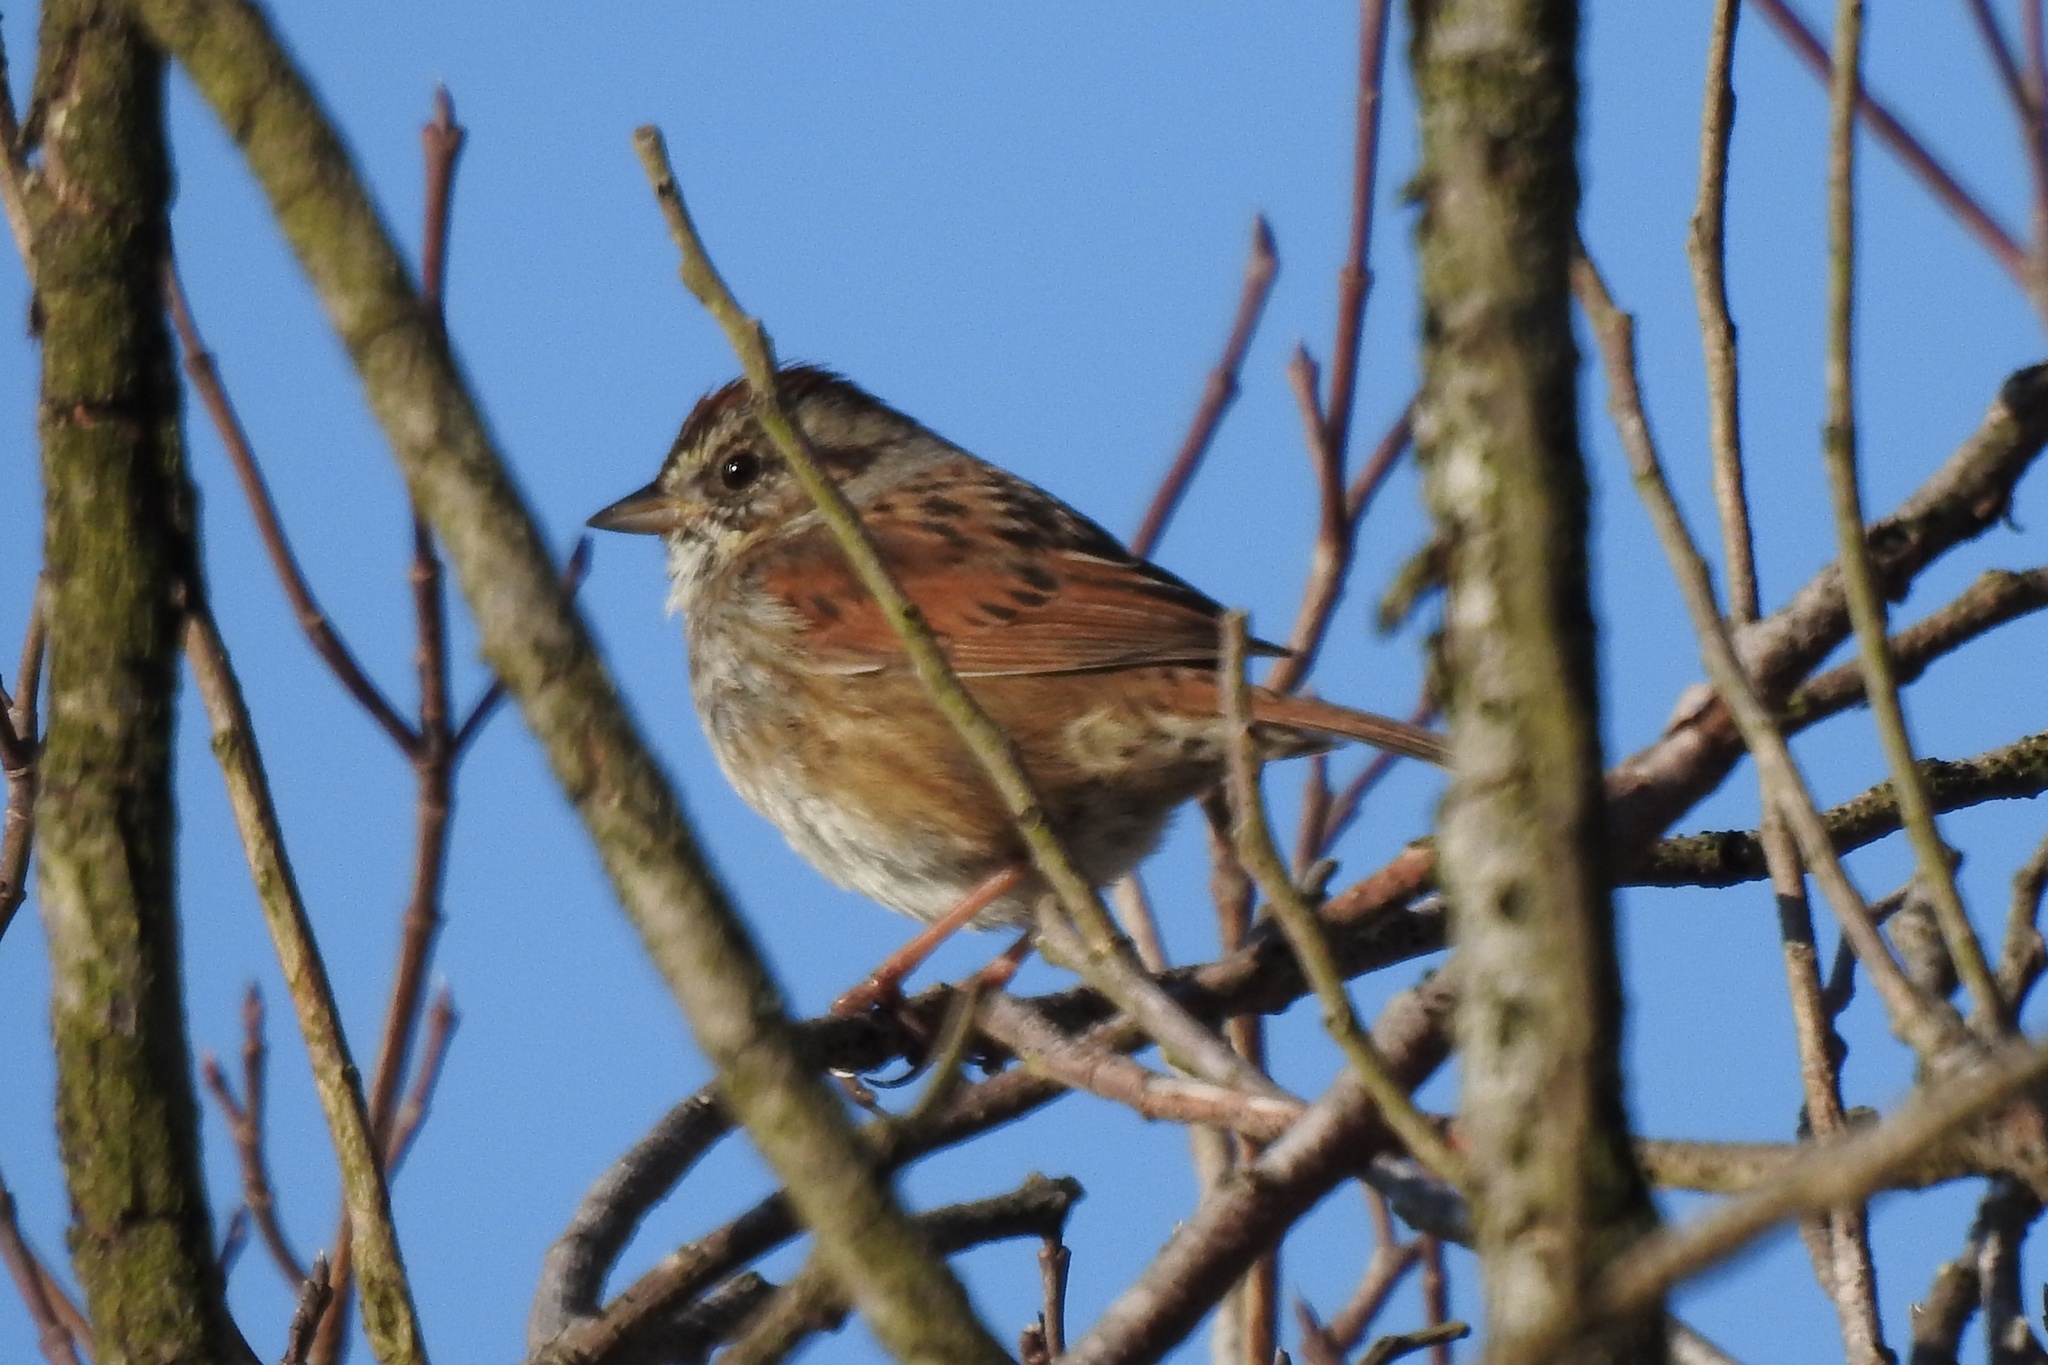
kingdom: Animalia
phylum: Chordata
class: Aves
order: Passeriformes
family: Passerellidae
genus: Melospiza
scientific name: Melospiza georgiana
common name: Swamp sparrow
